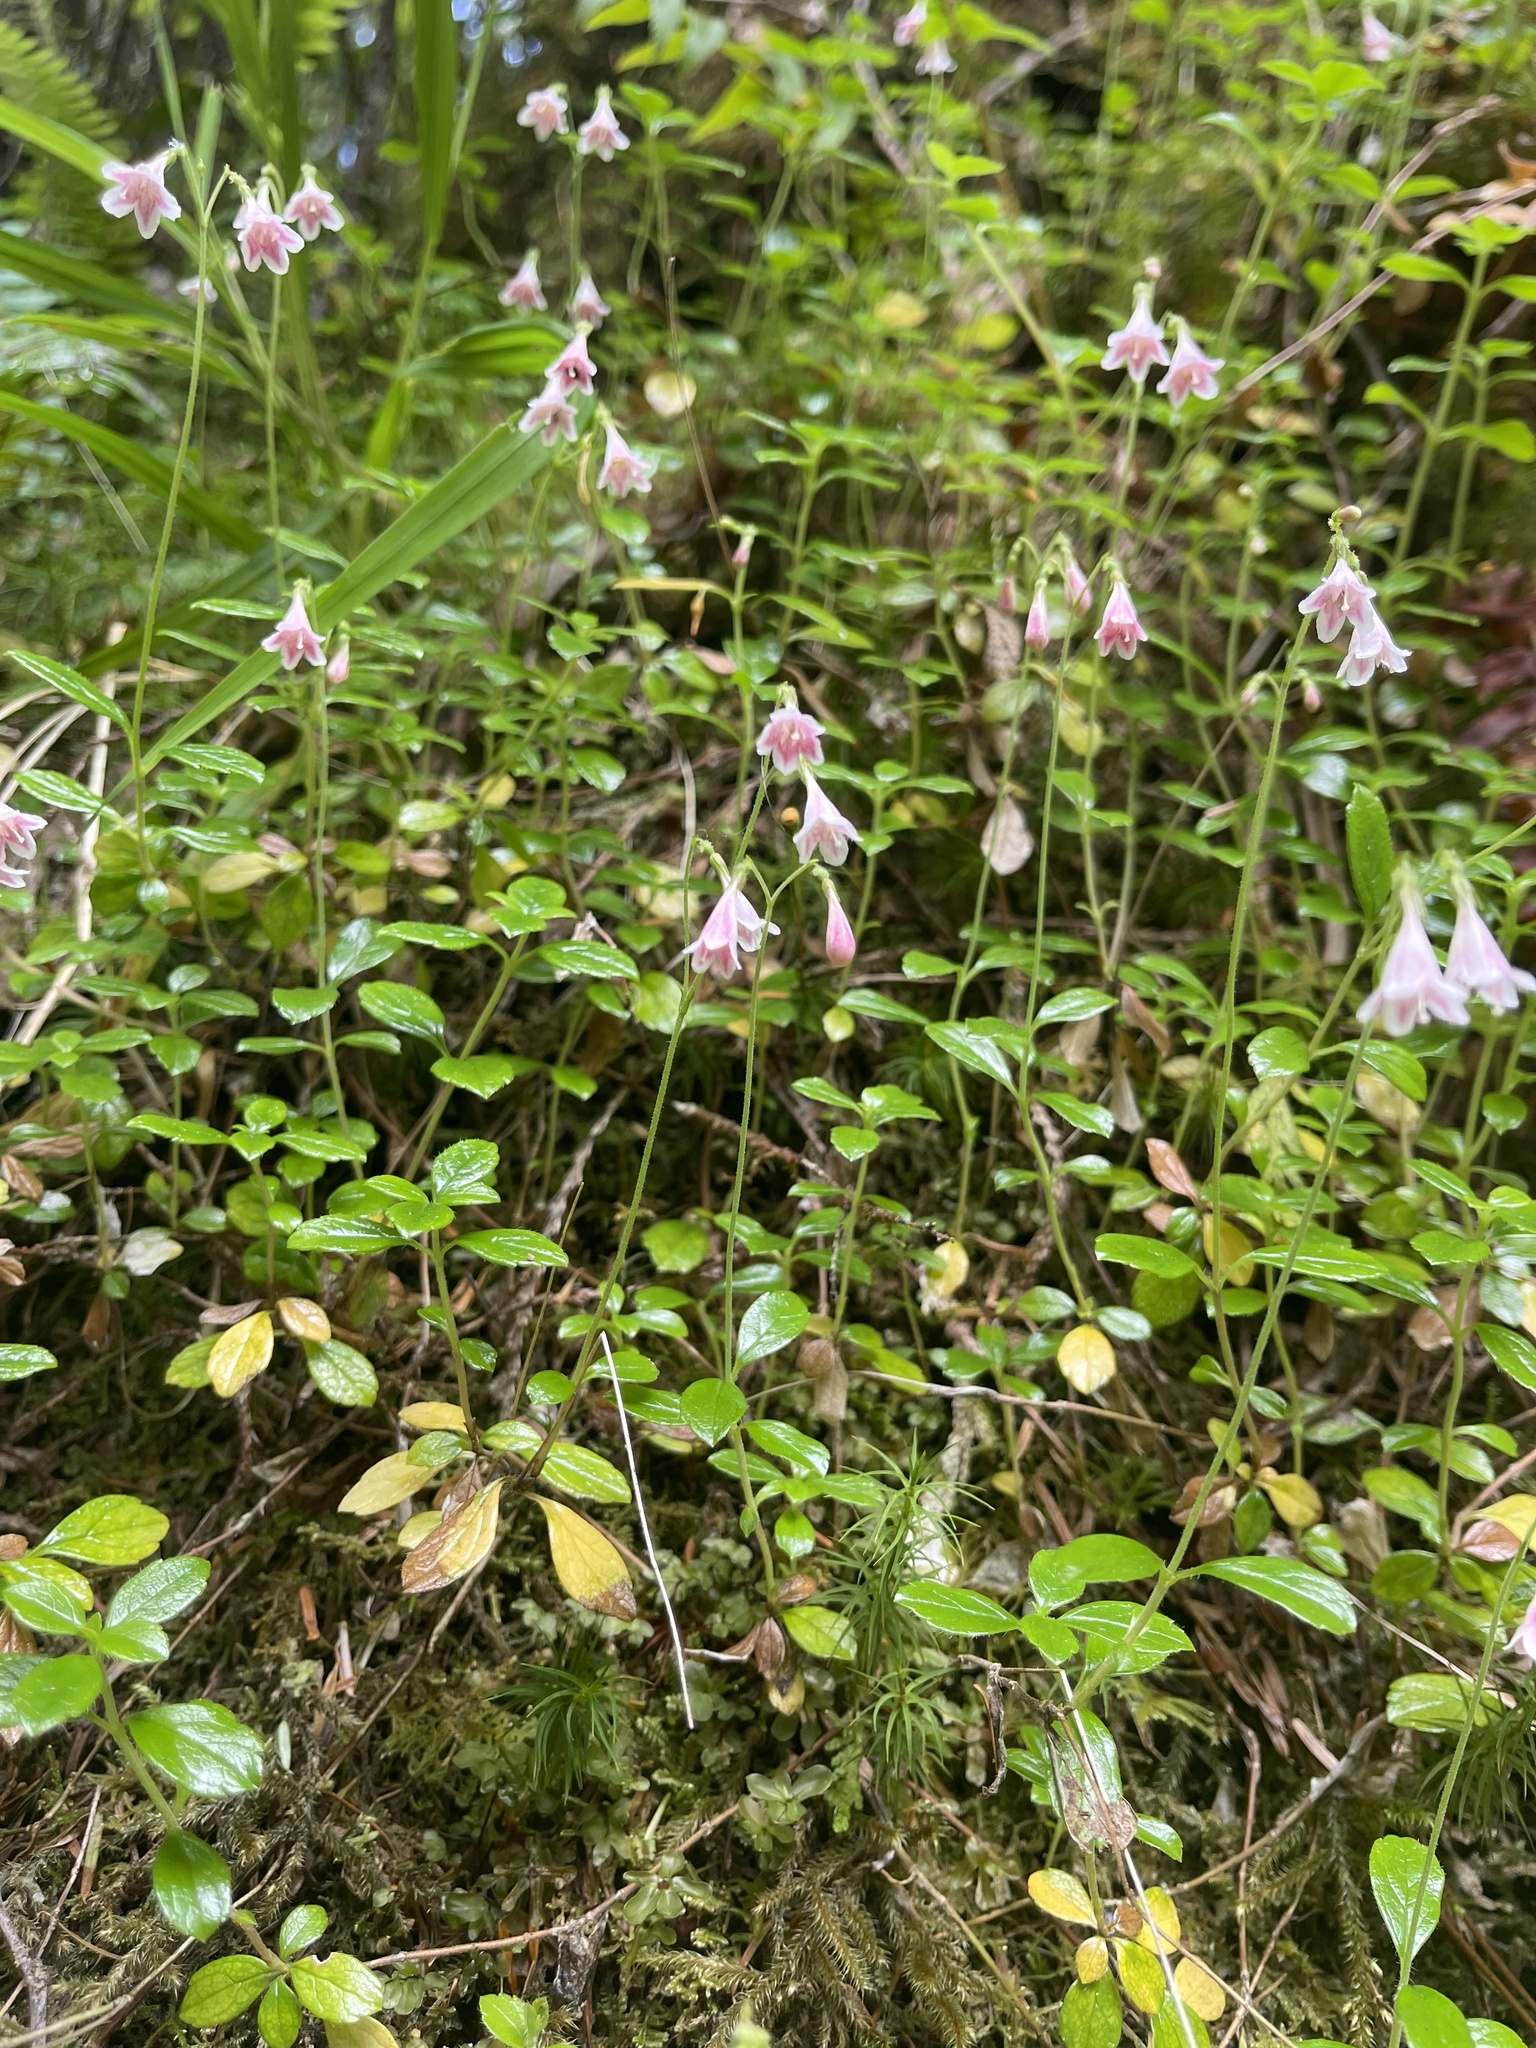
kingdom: Plantae
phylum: Tracheophyta
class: Magnoliopsida
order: Dipsacales
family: Caprifoliaceae
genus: Linnaea
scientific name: Linnaea borealis
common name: Twinflower
